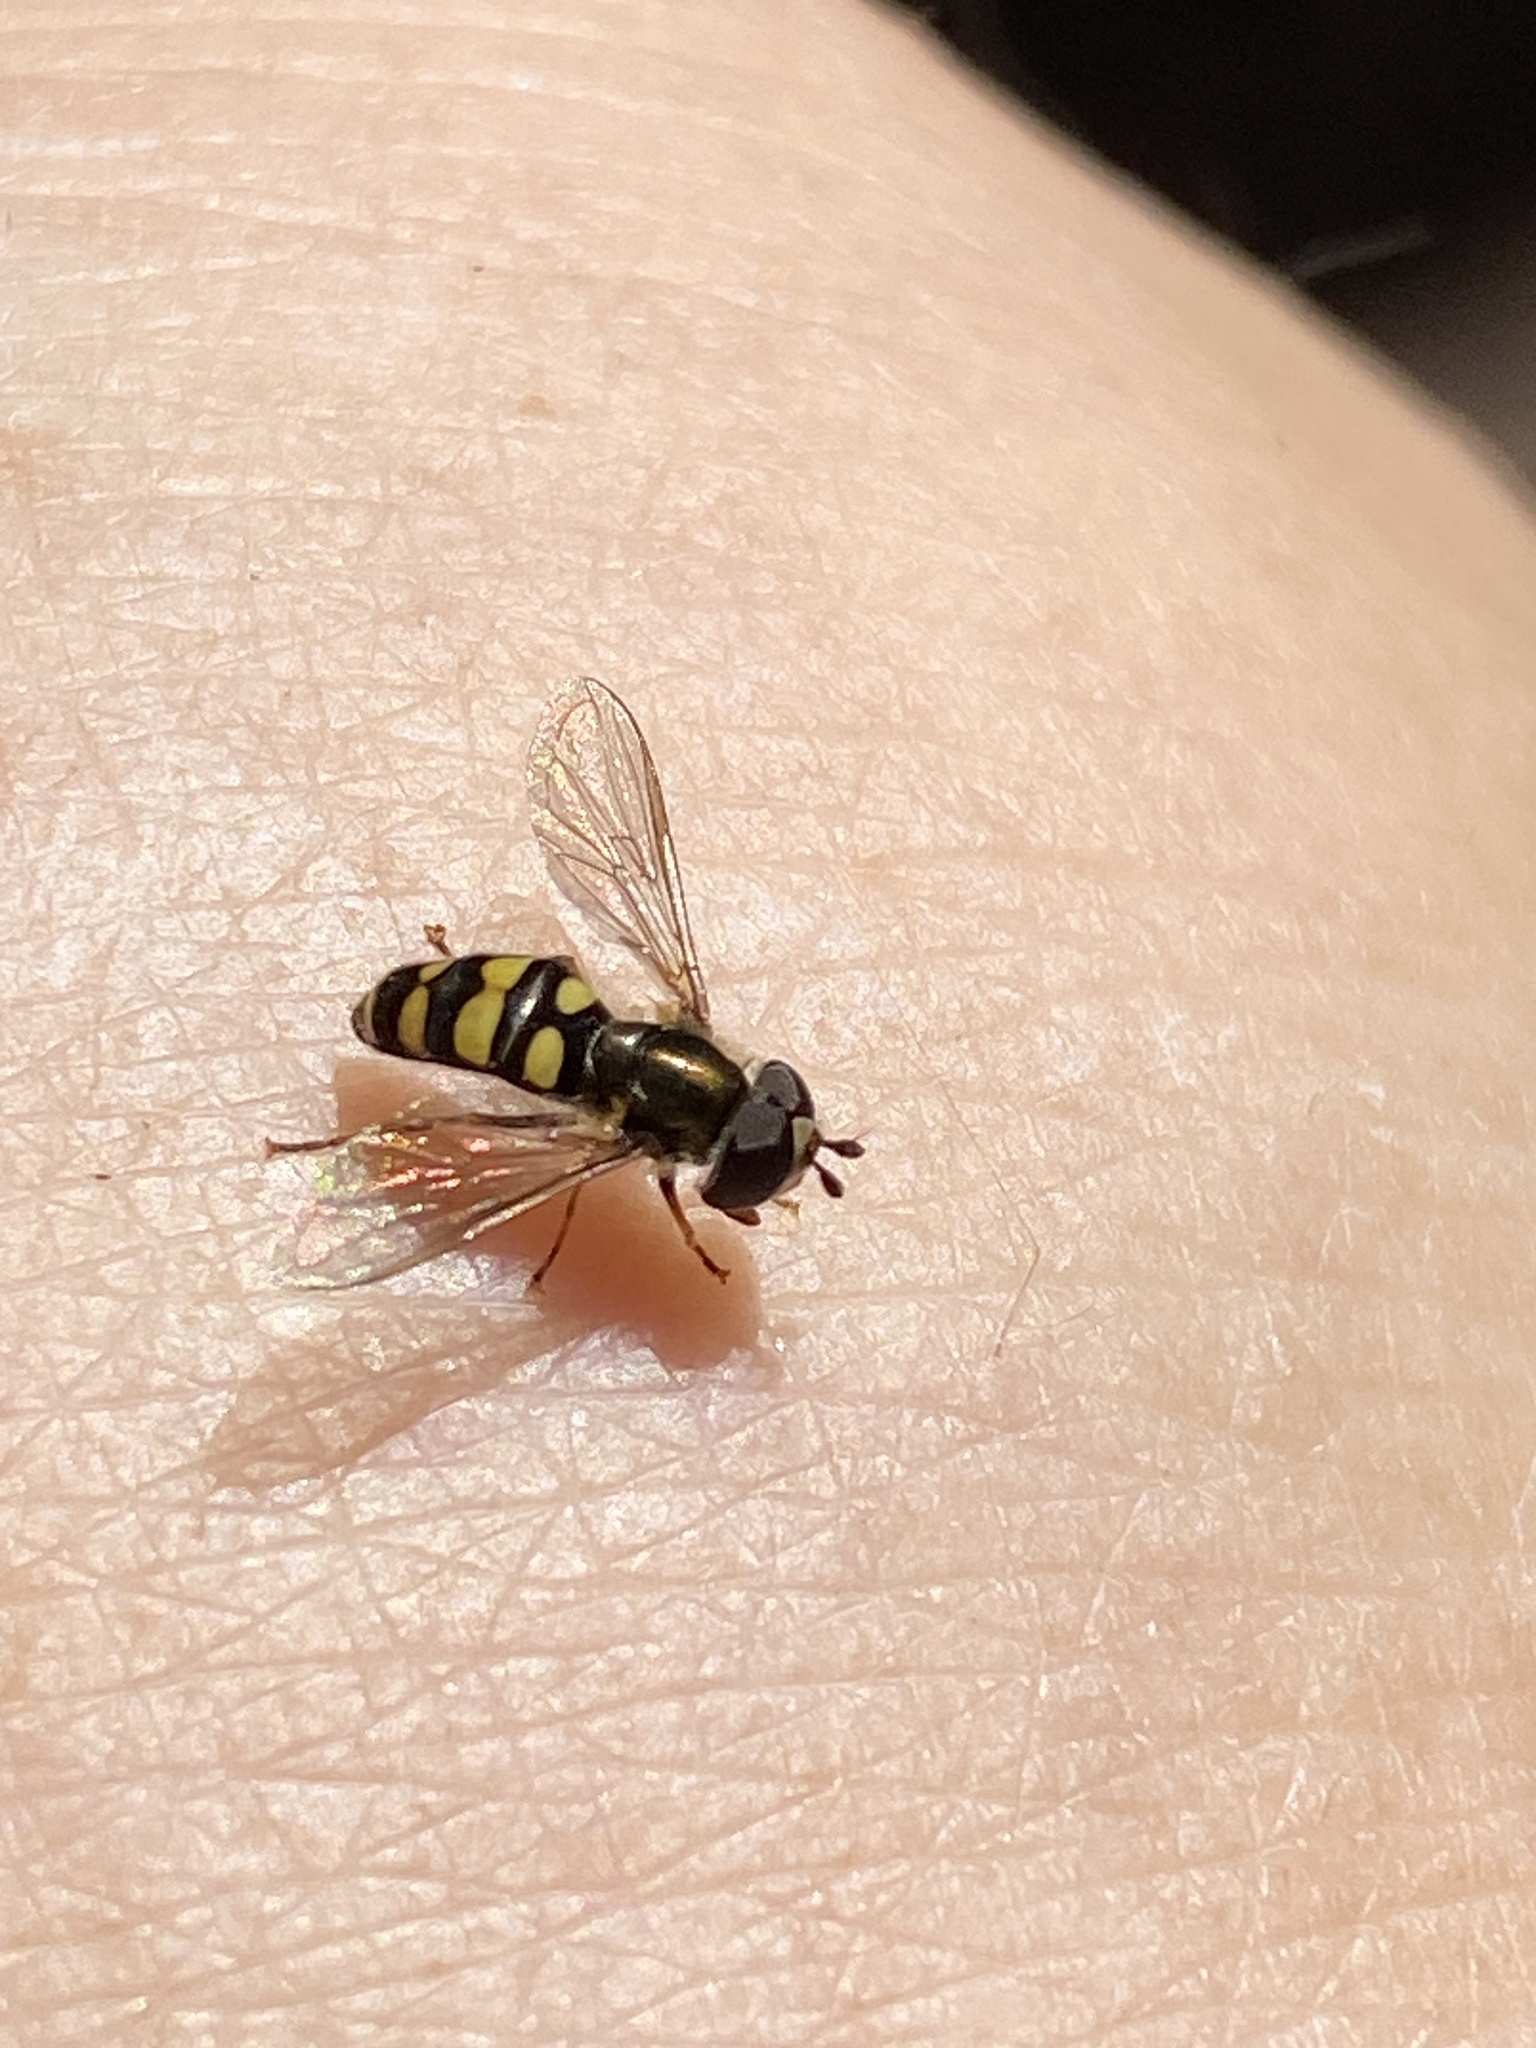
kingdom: Animalia
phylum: Arthropoda
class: Insecta
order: Diptera
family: Syrphidae
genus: Eupeodes
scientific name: Eupeodes
